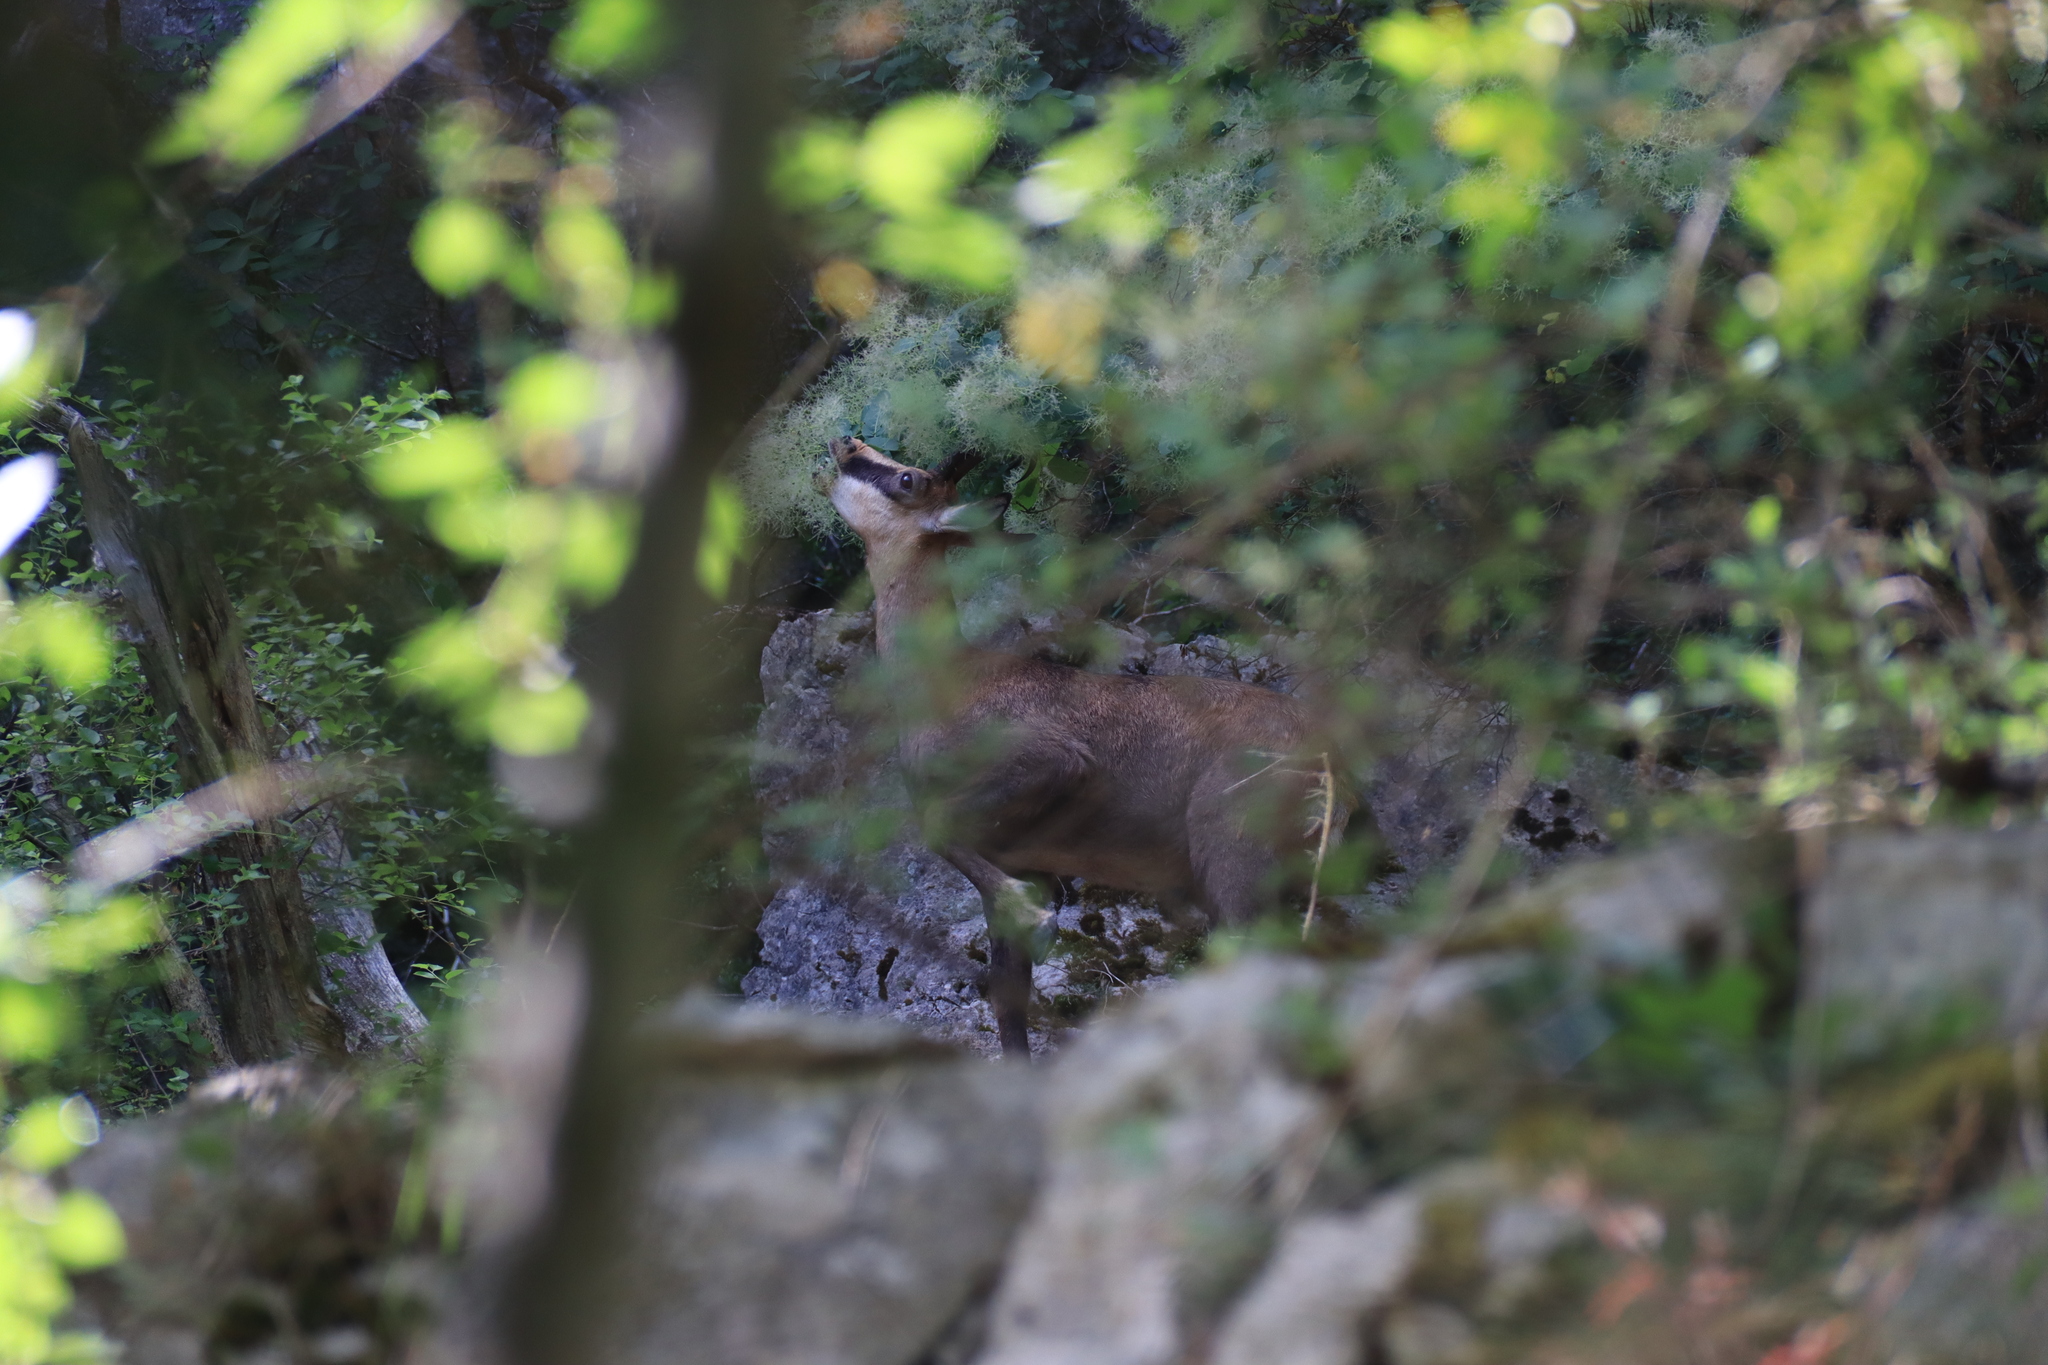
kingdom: Animalia
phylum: Chordata
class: Mammalia
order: Artiodactyla
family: Bovidae
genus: Rupicapra
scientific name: Rupicapra rupicapra
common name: Chamois
